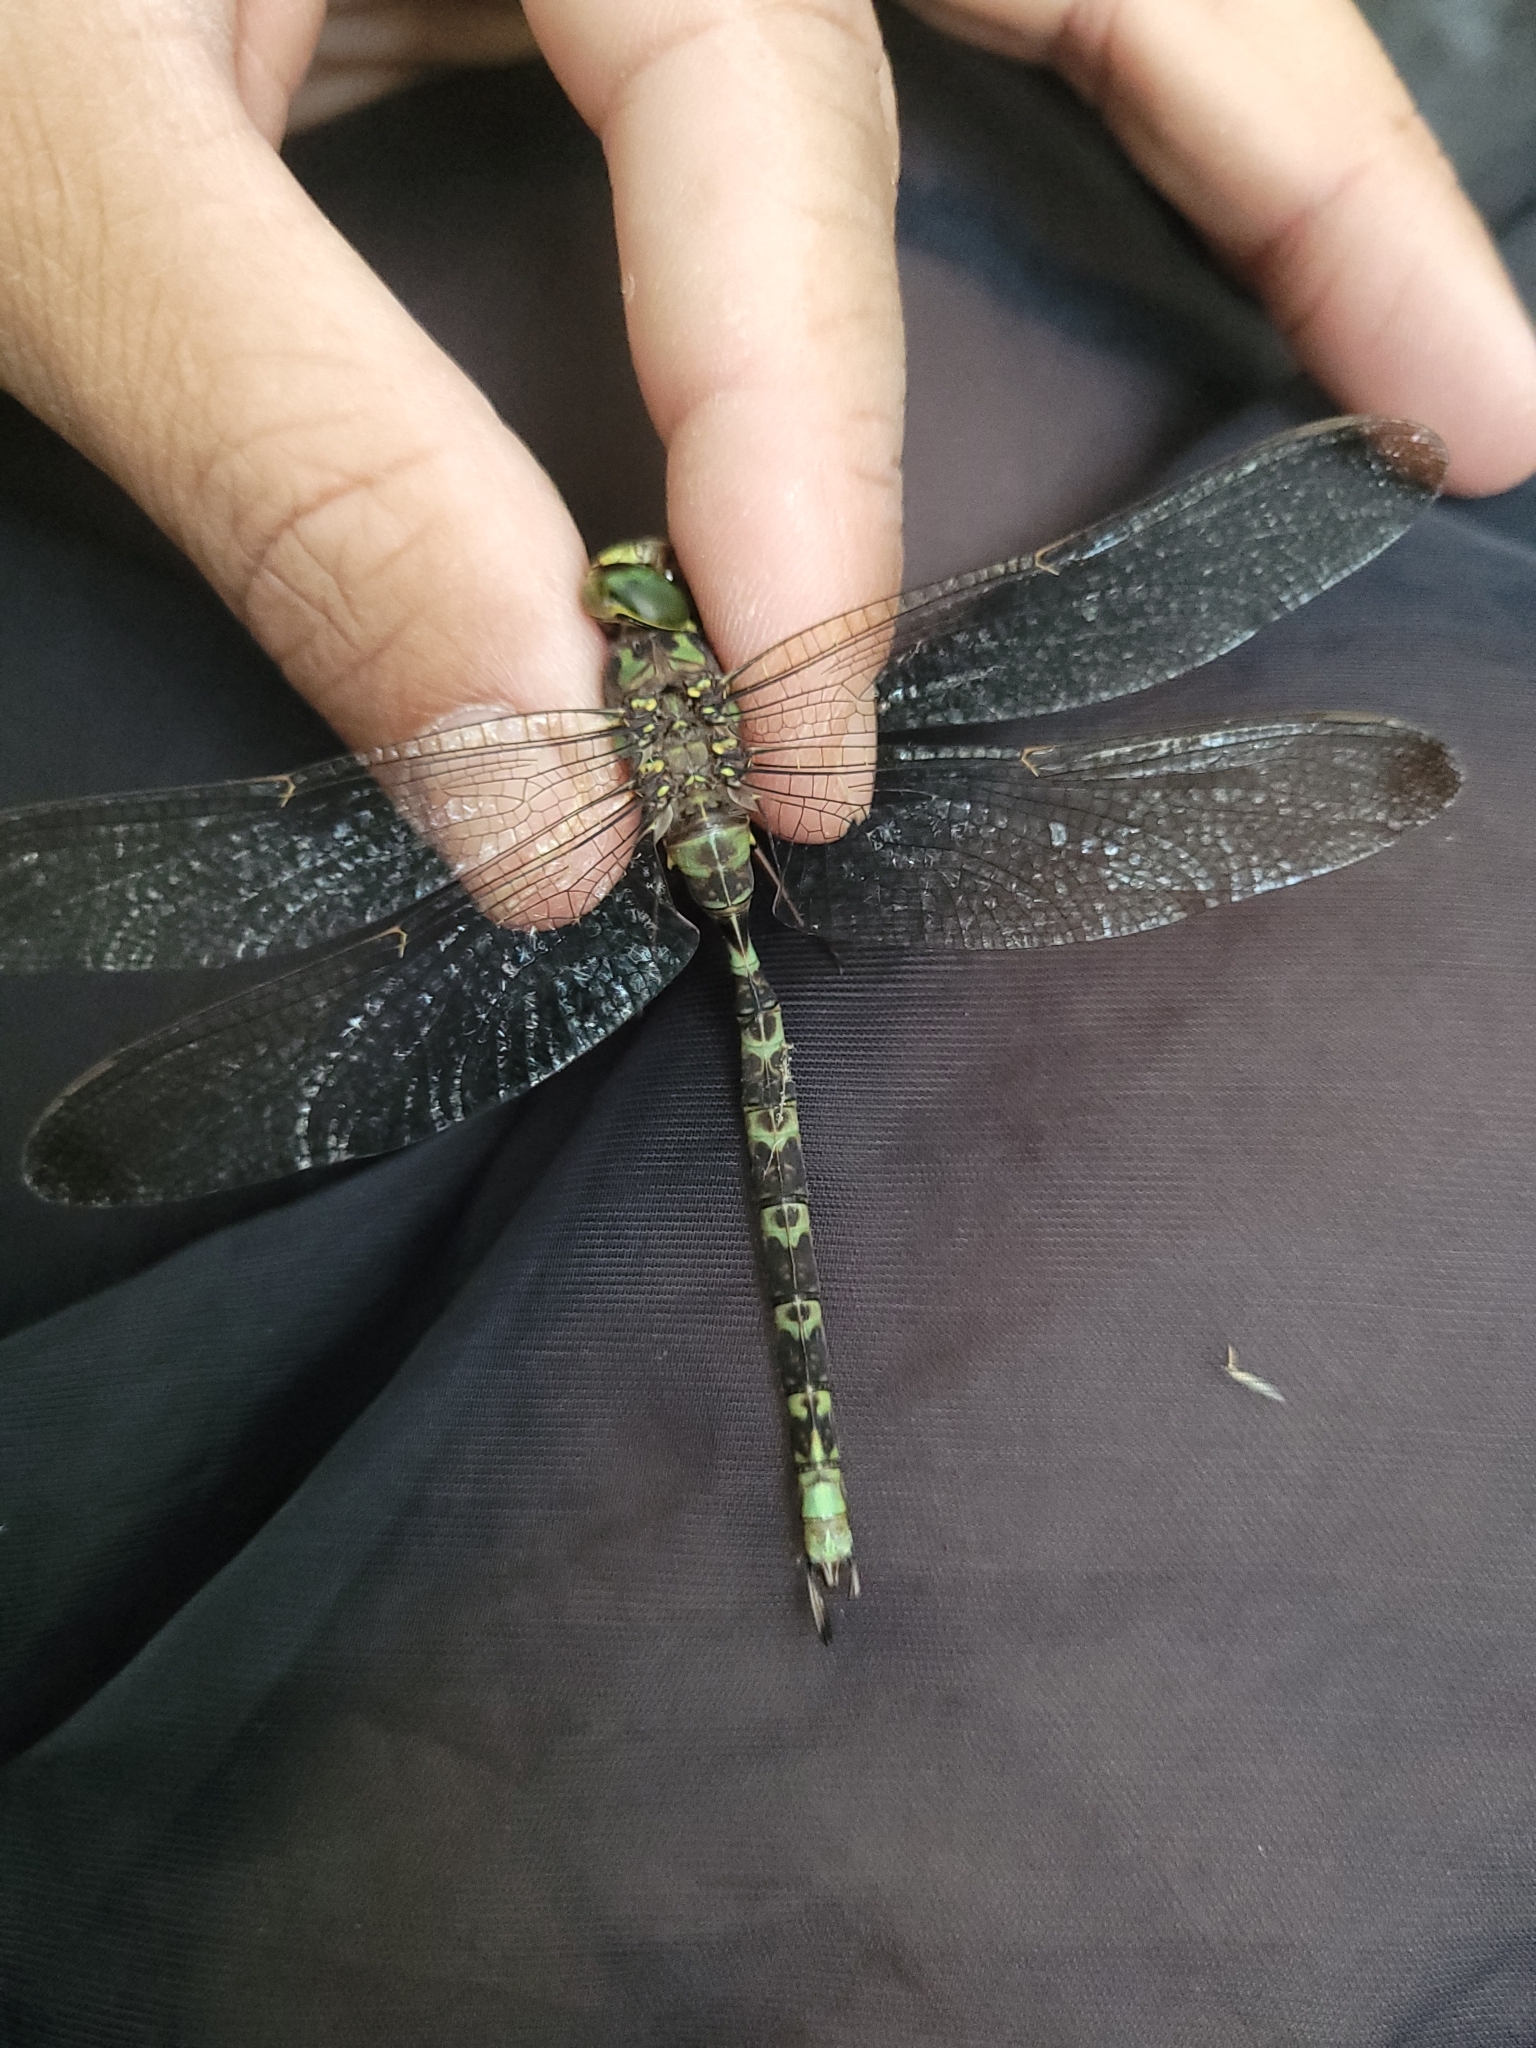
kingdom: Animalia
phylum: Arthropoda
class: Insecta
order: Odonata
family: Aeshnidae
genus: Boyeria
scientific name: Boyeria irene
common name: Western spectre
